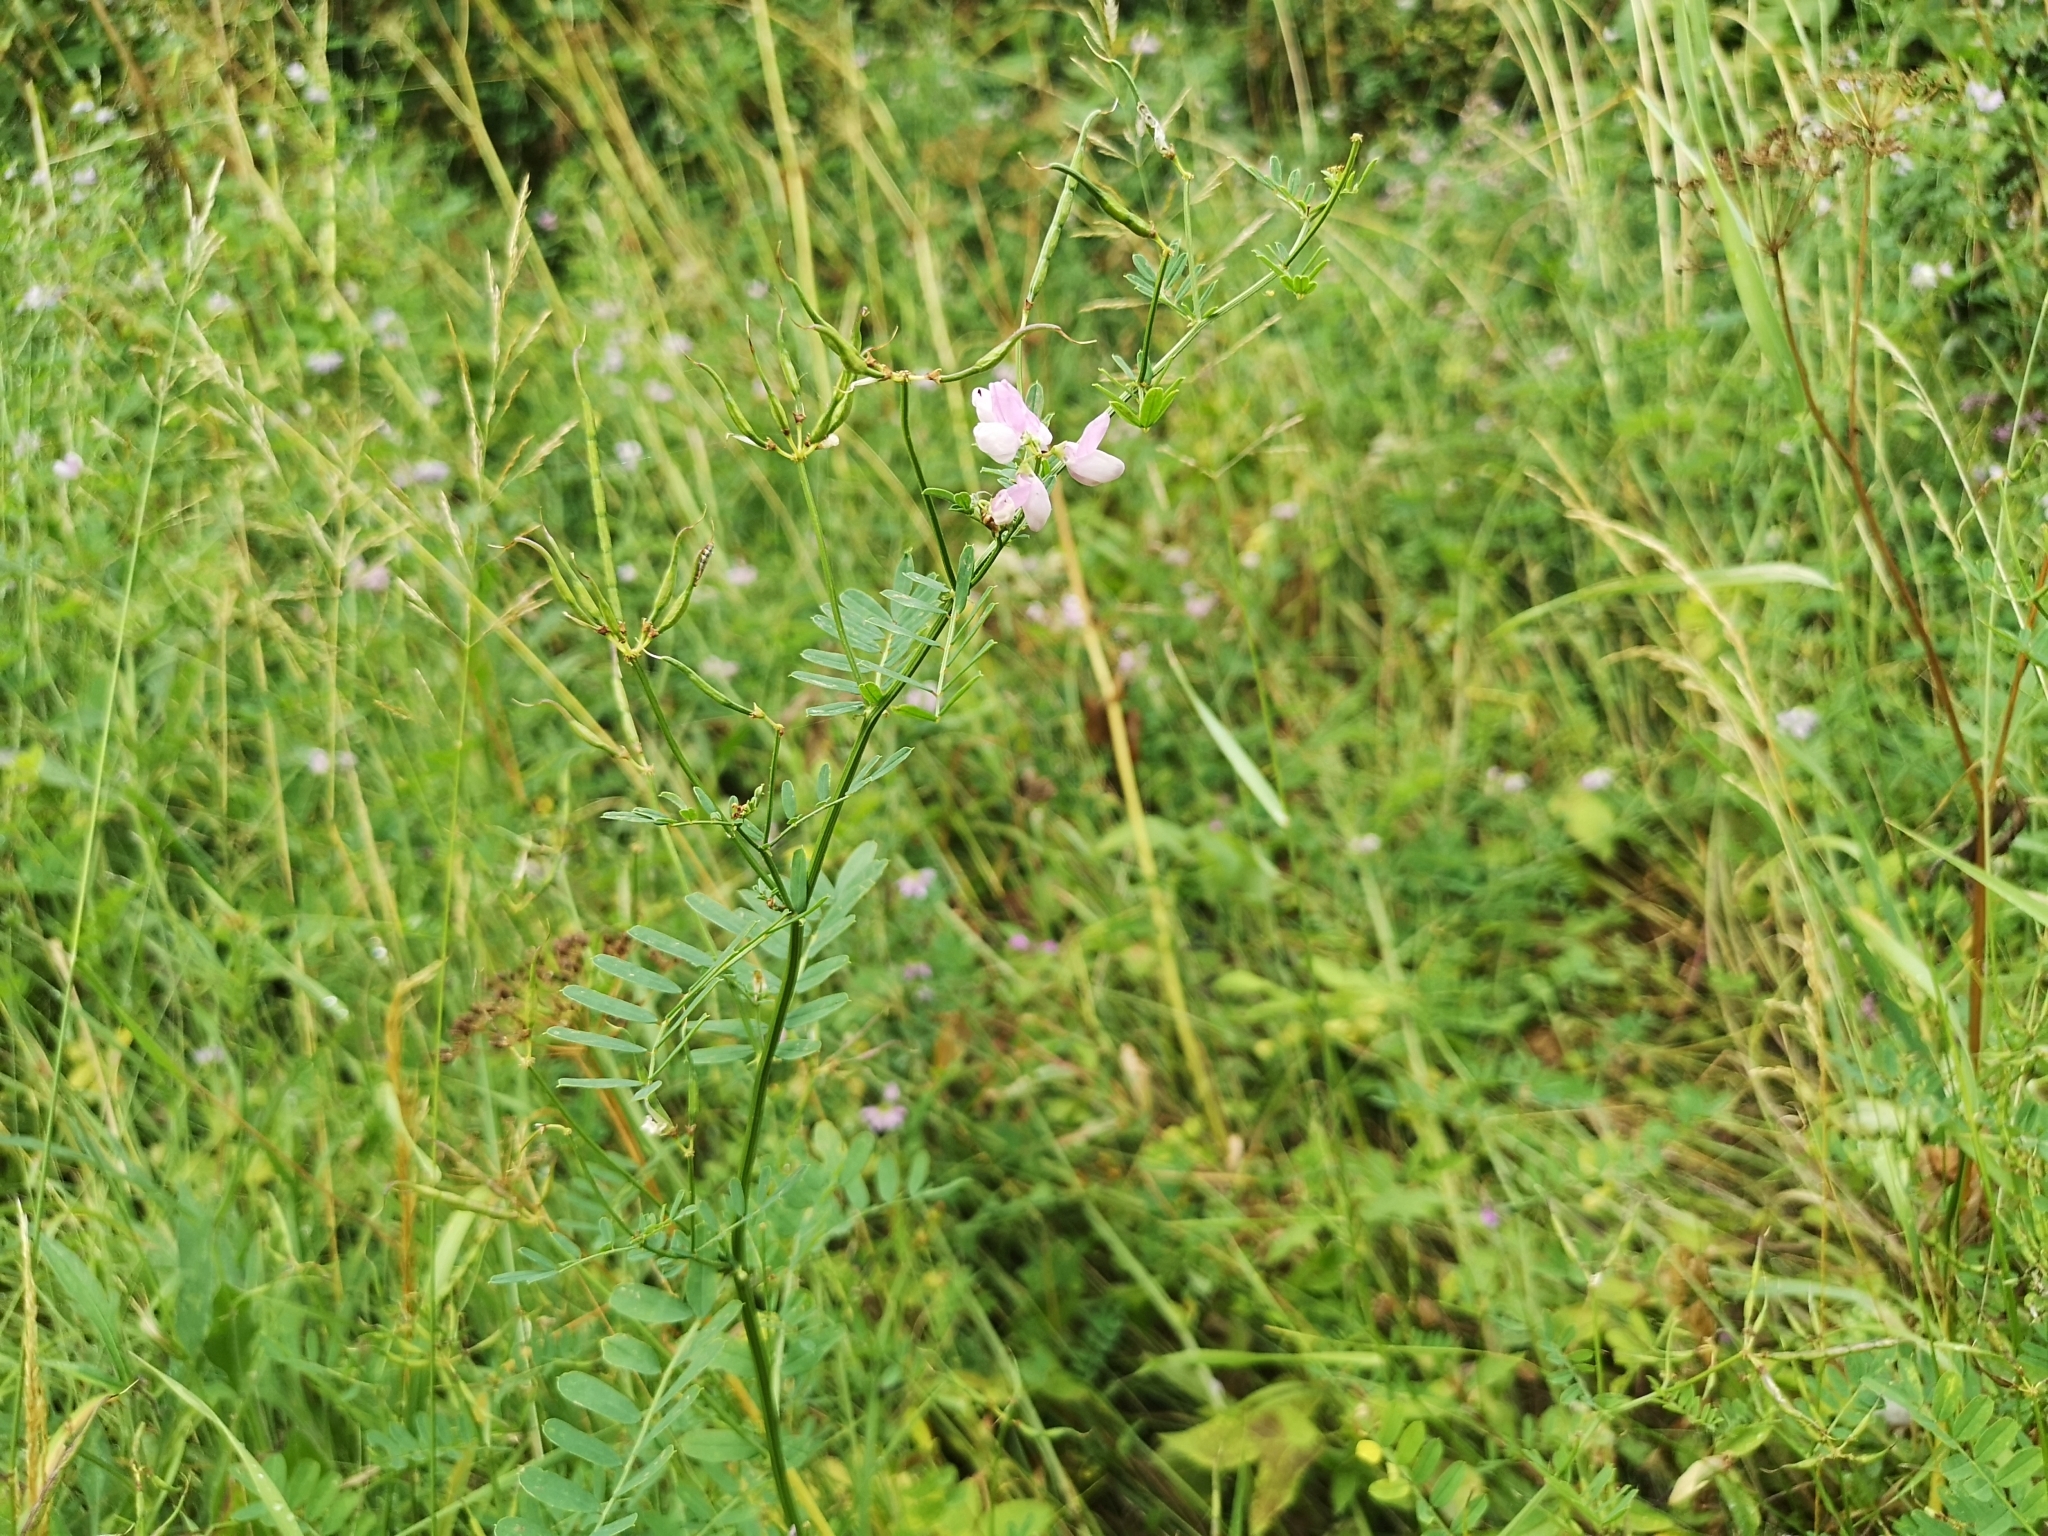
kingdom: Plantae
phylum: Tracheophyta
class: Magnoliopsida
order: Fabales
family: Fabaceae
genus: Coronilla
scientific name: Coronilla varia
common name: Crownvetch
